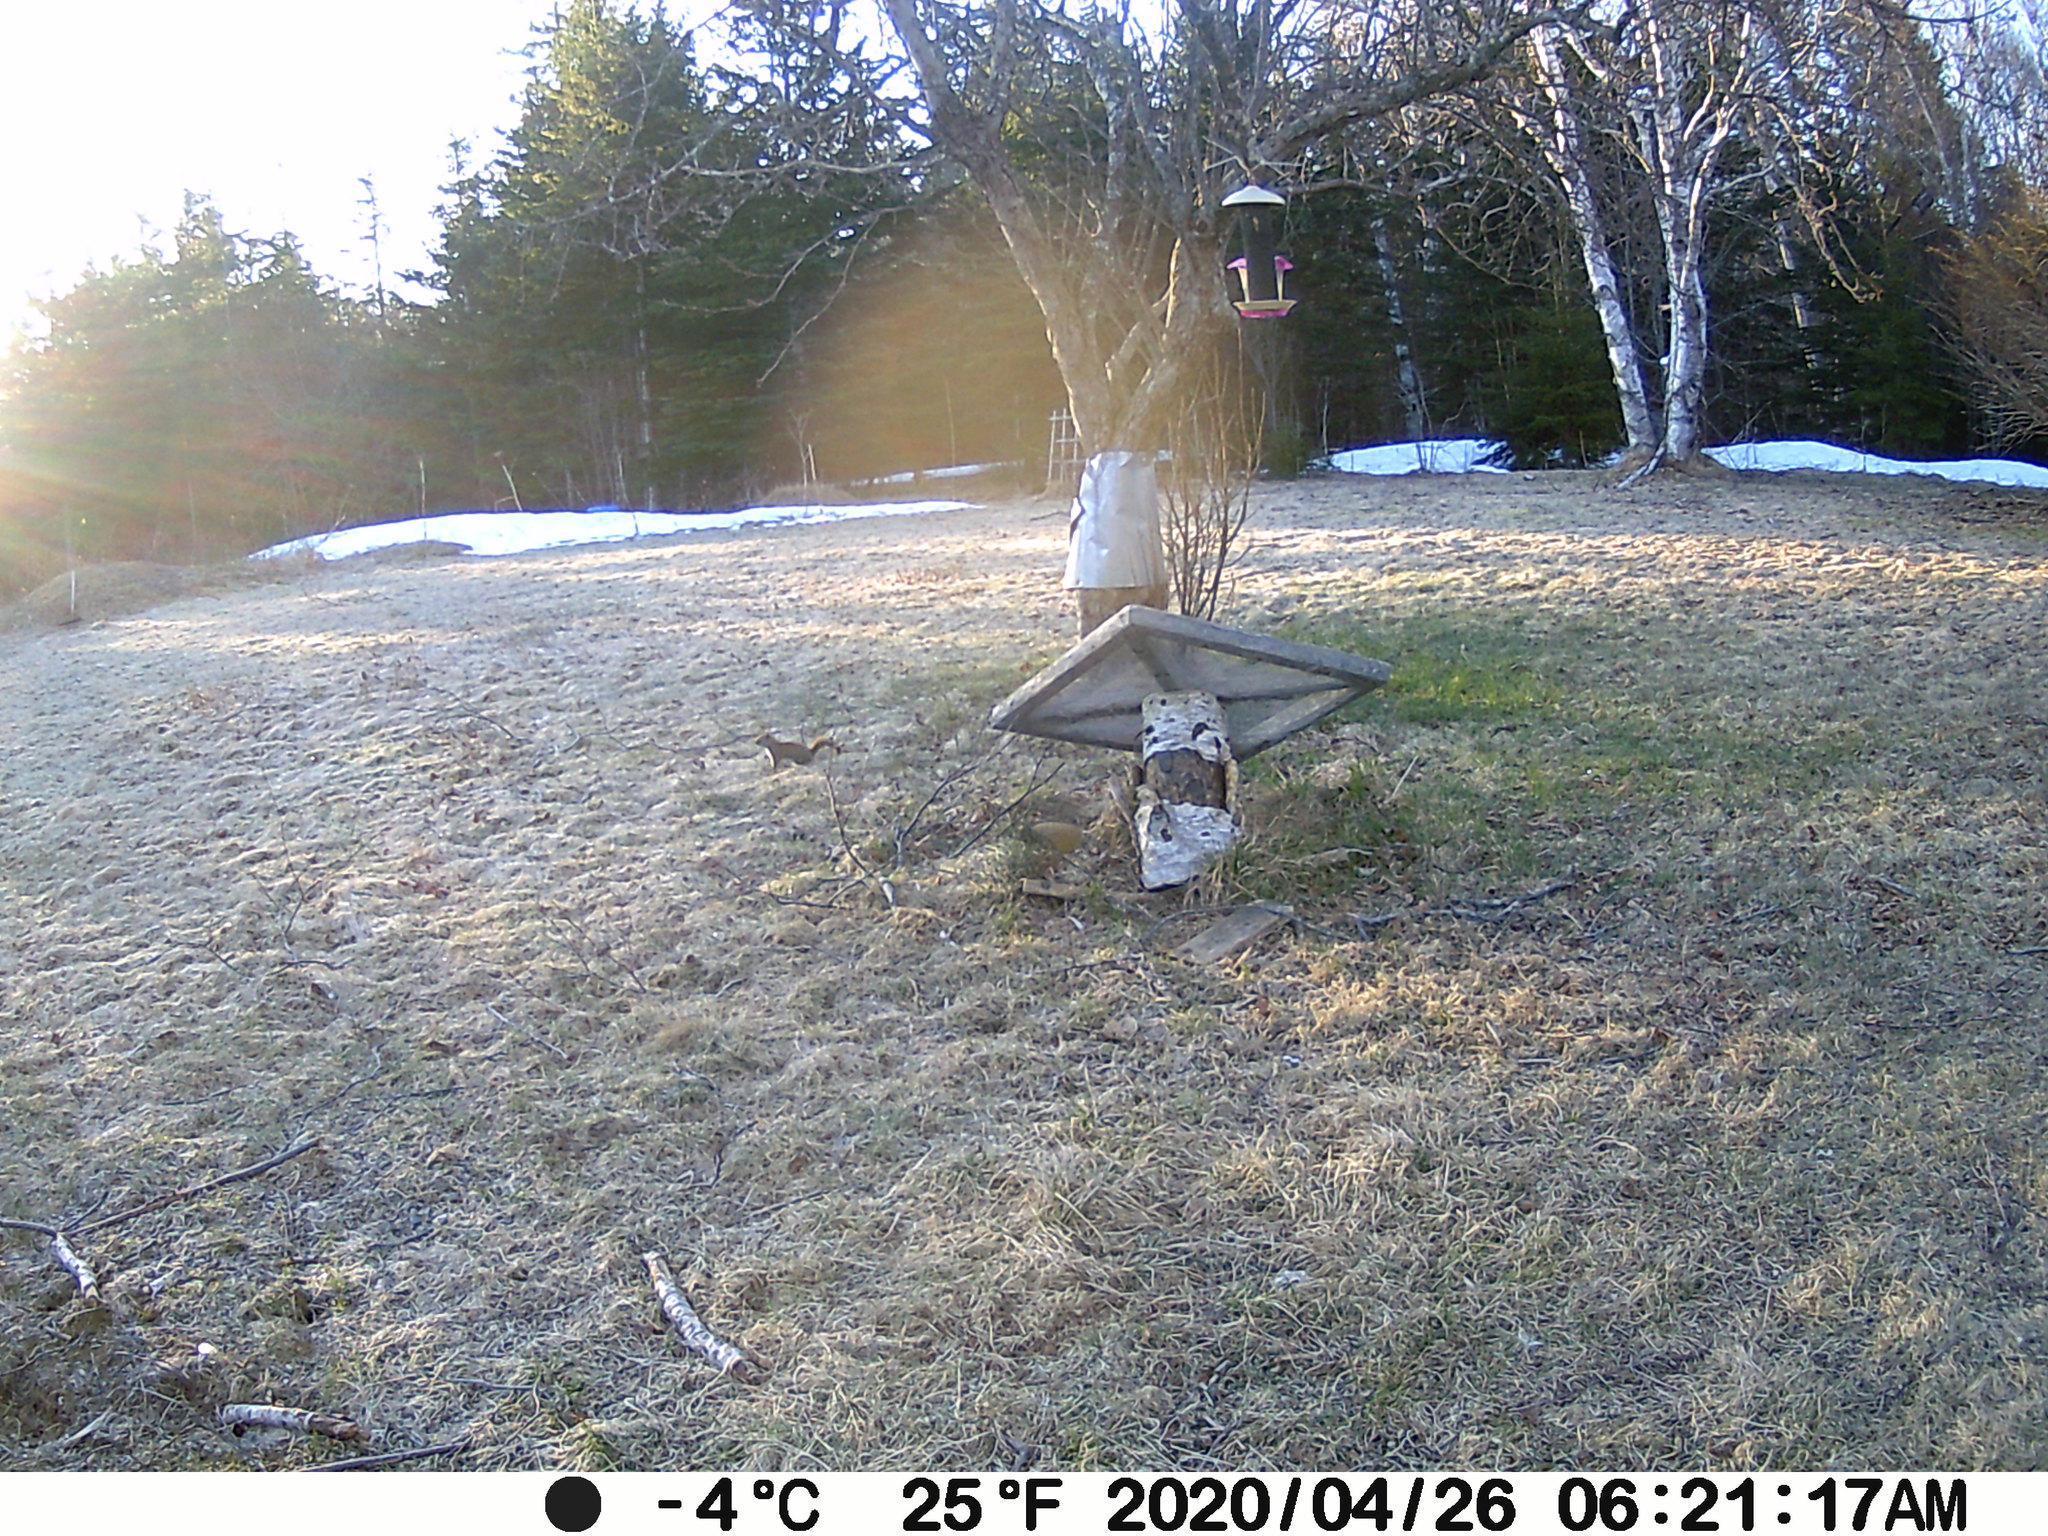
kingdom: Animalia
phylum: Chordata
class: Mammalia
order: Rodentia
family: Sciuridae
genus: Tamiasciurus
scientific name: Tamiasciurus hudsonicus
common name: Red squirrel
